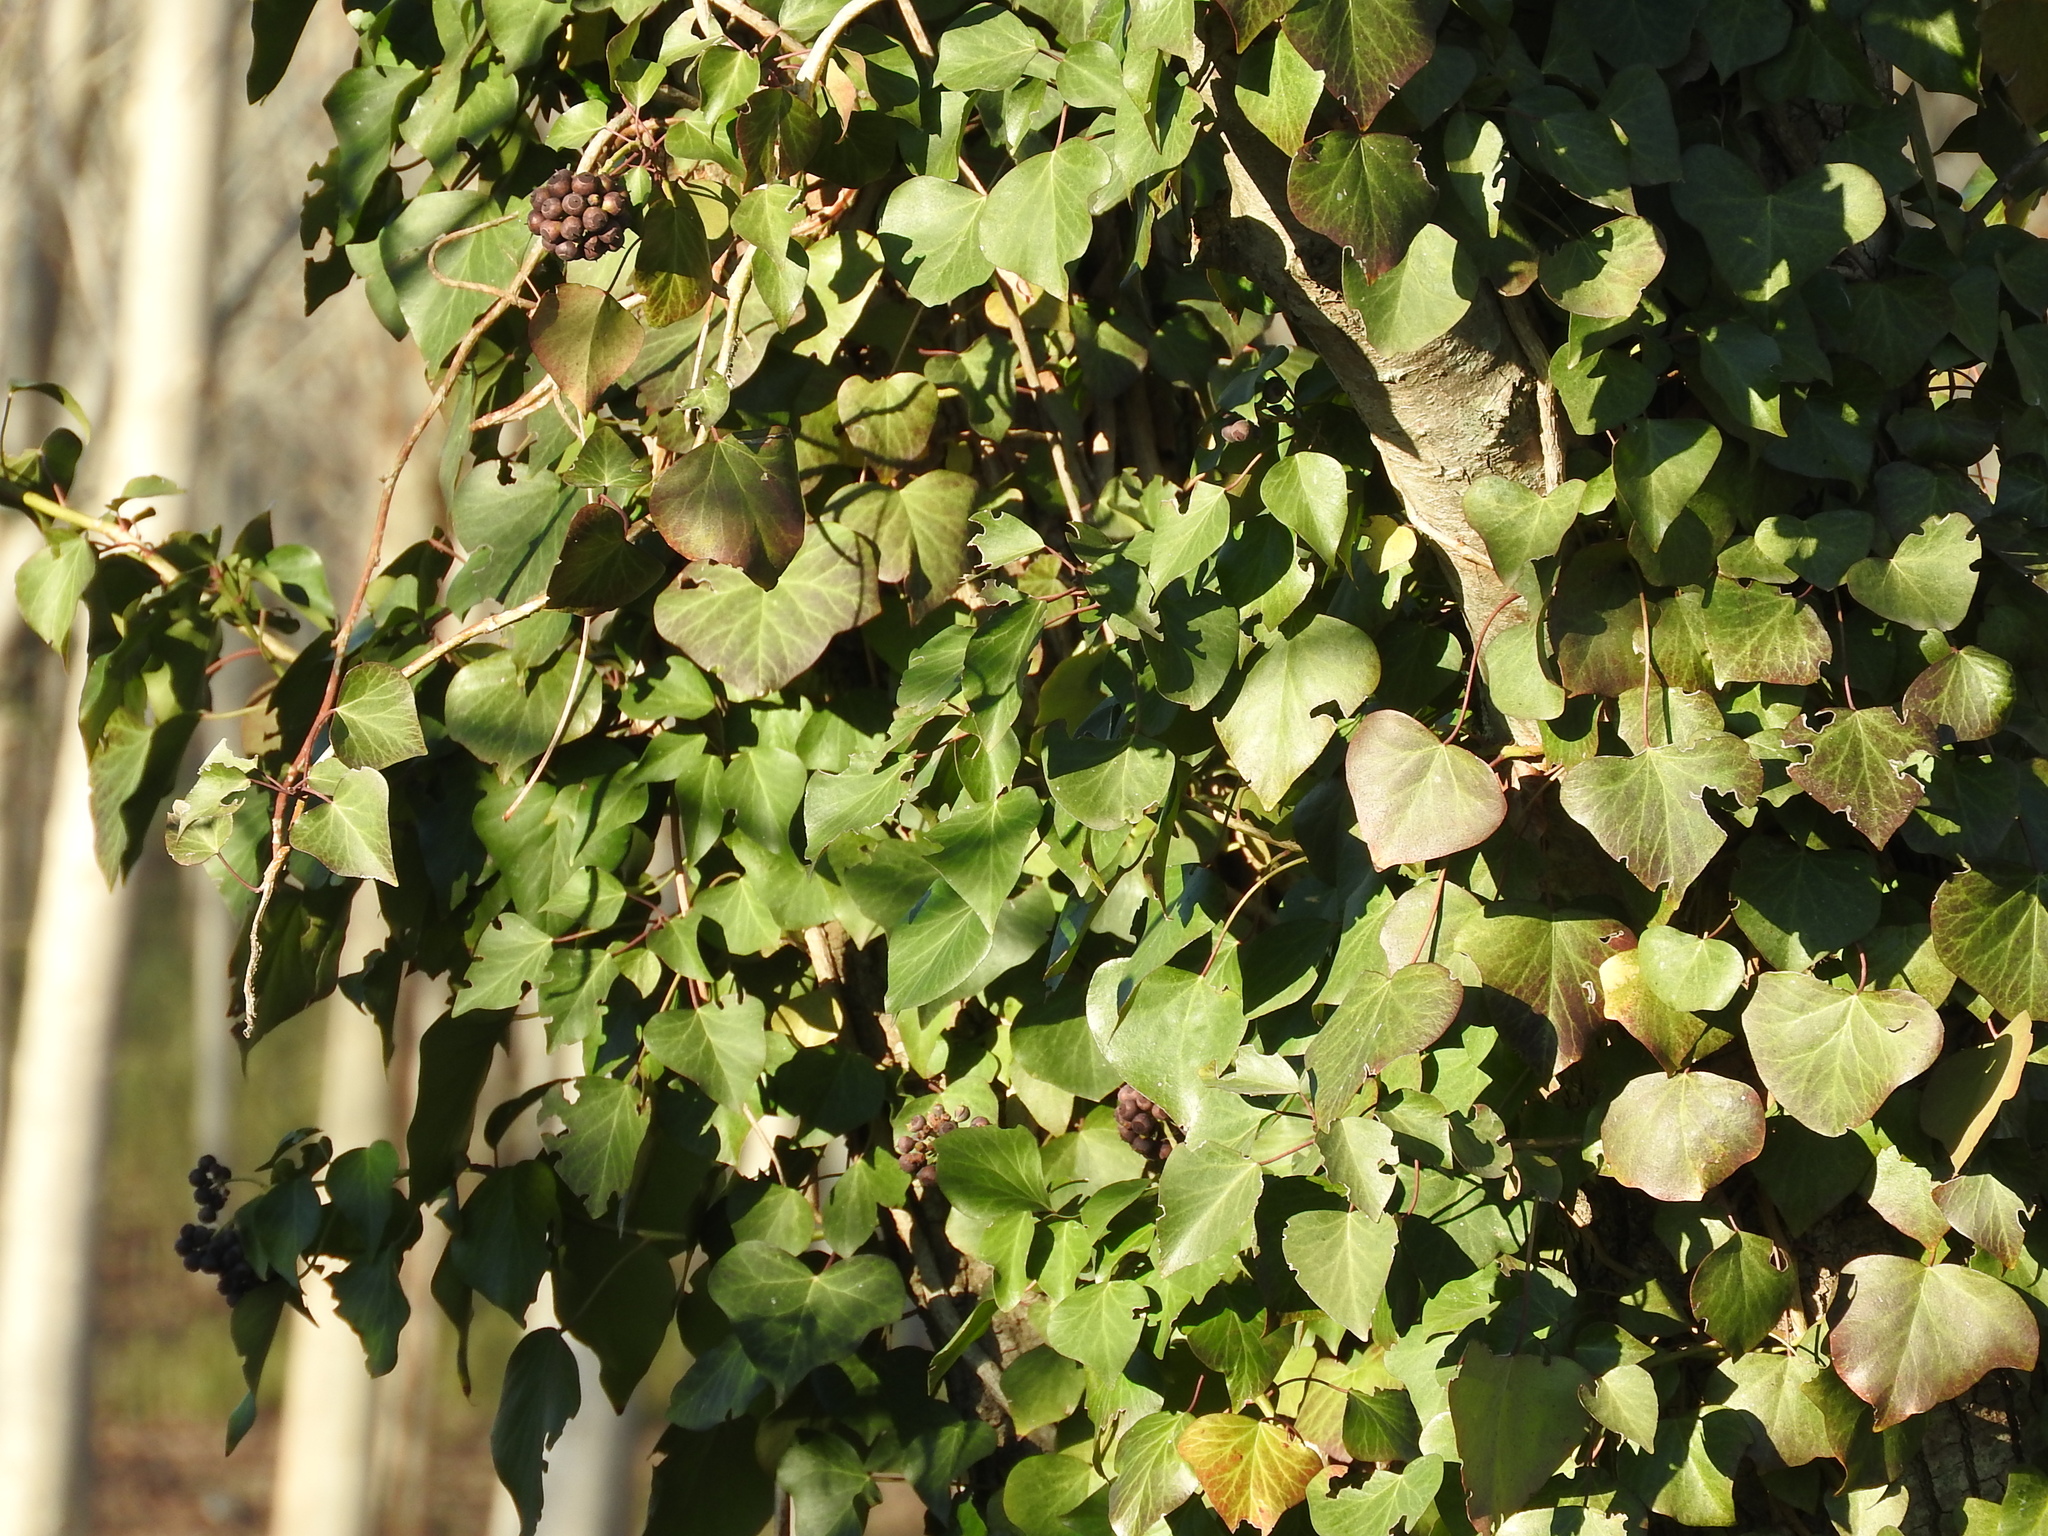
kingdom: Plantae
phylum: Tracheophyta
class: Magnoliopsida
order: Apiales
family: Araliaceae
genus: Hedera
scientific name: Hedera helix
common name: Ivy
